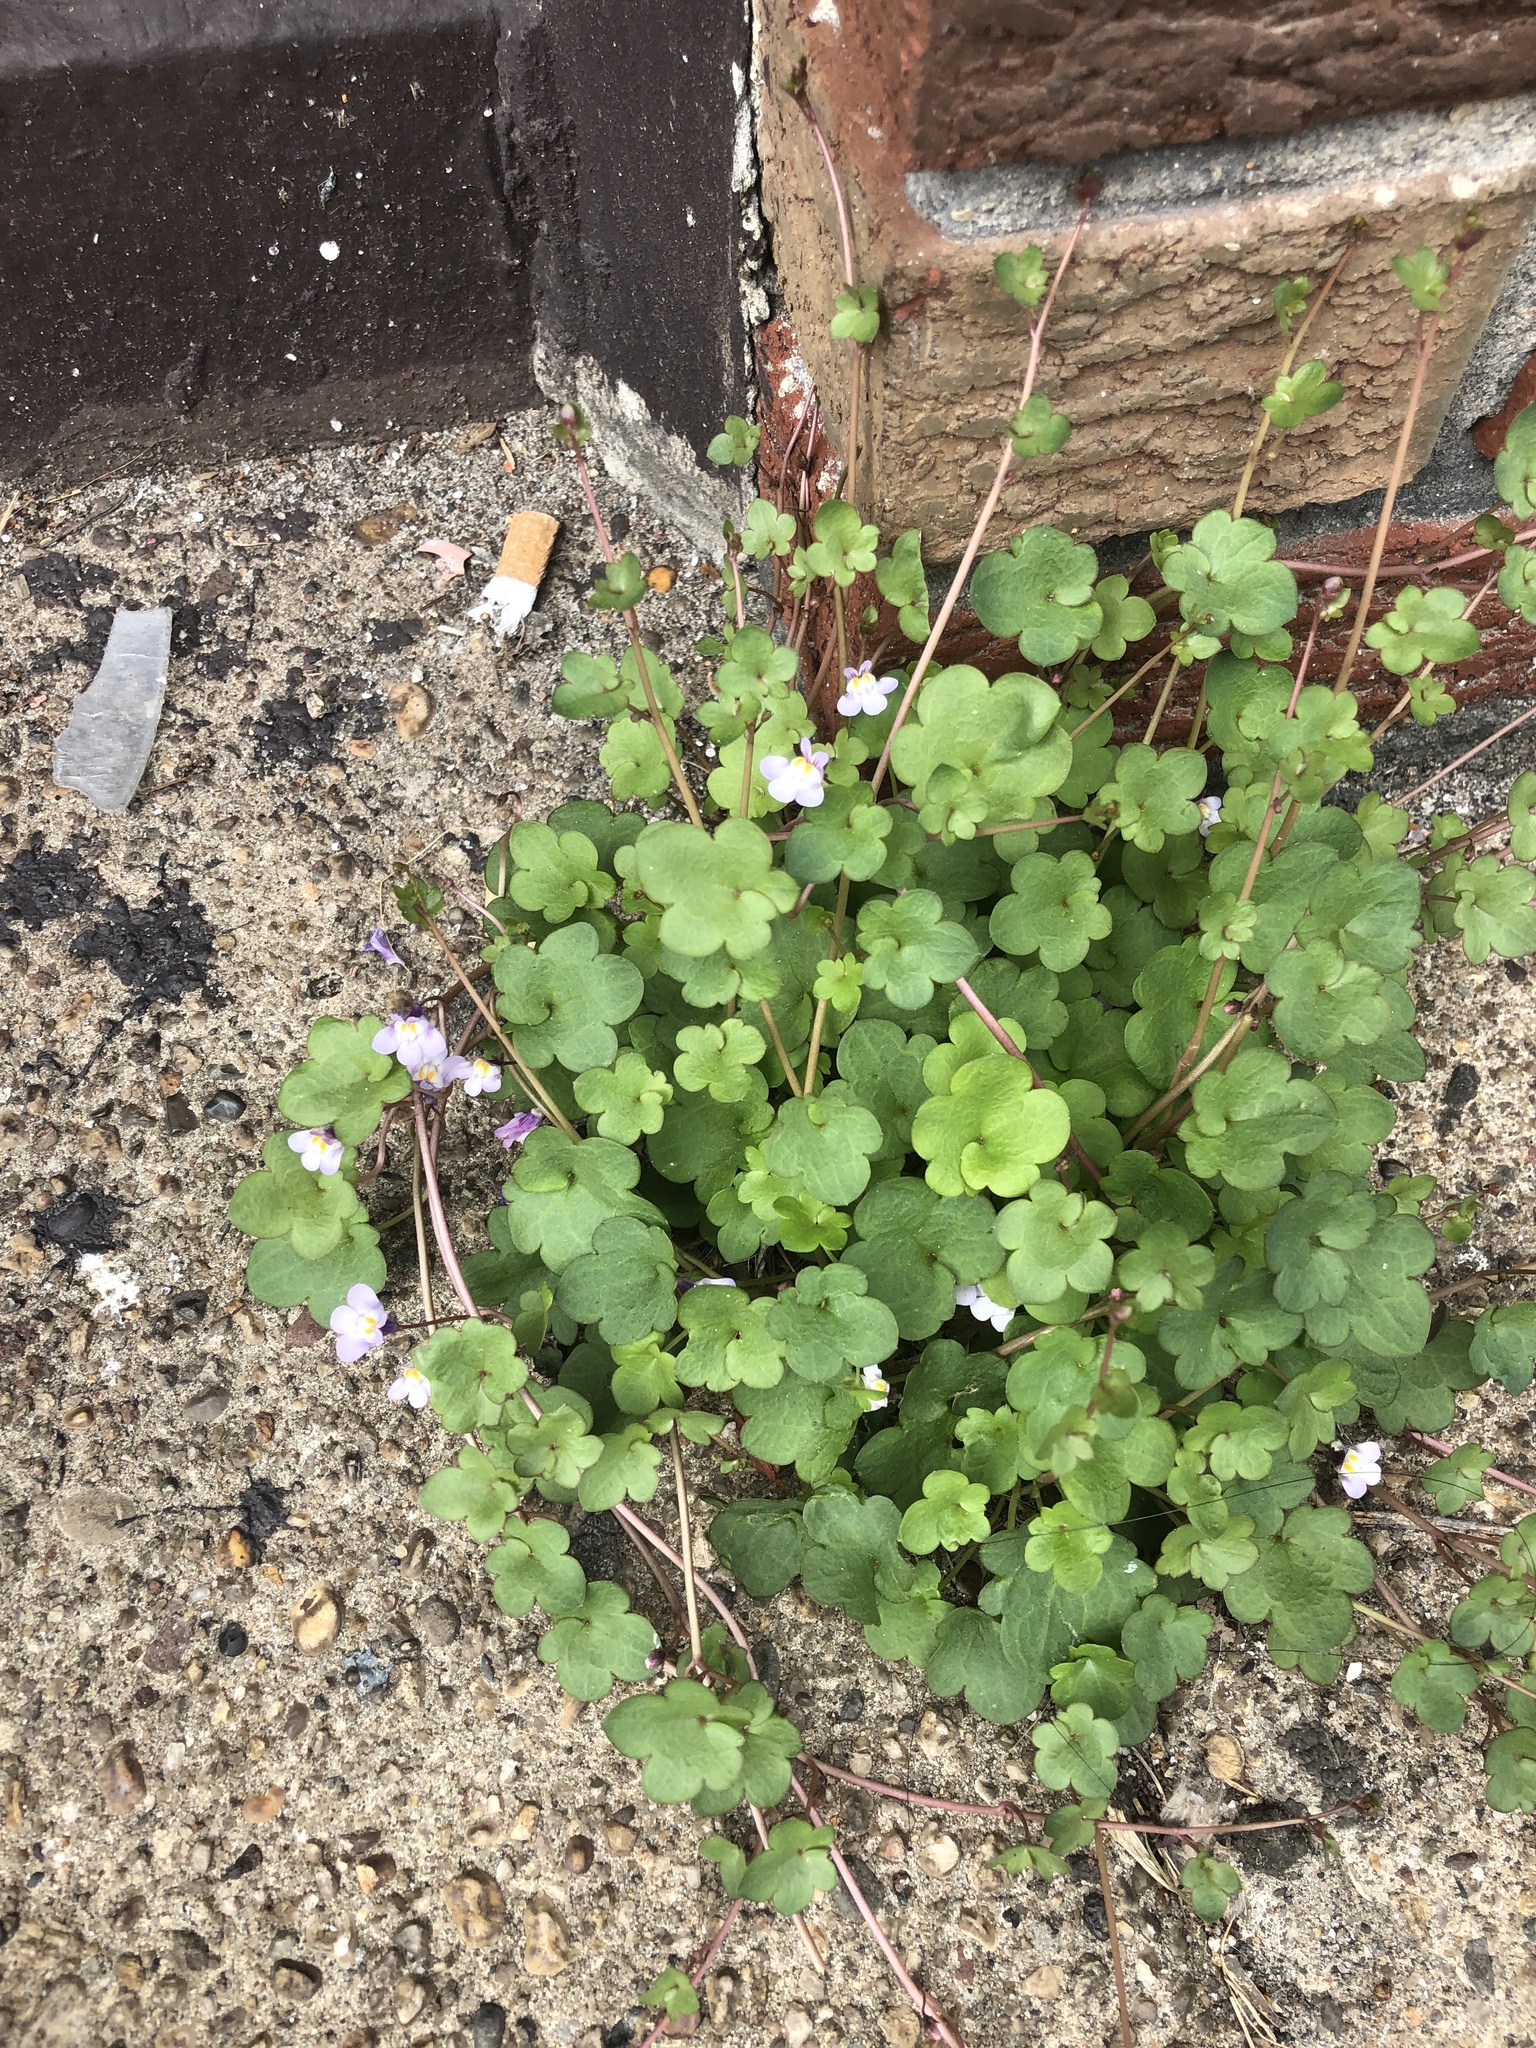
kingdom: Plantae
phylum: Tracheophyta
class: Magnoliopsida
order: Lamiales
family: Plantaginaceae
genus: Cymbalaria
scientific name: Cymbalaria muralis
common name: Ivy-leaved toadflax
